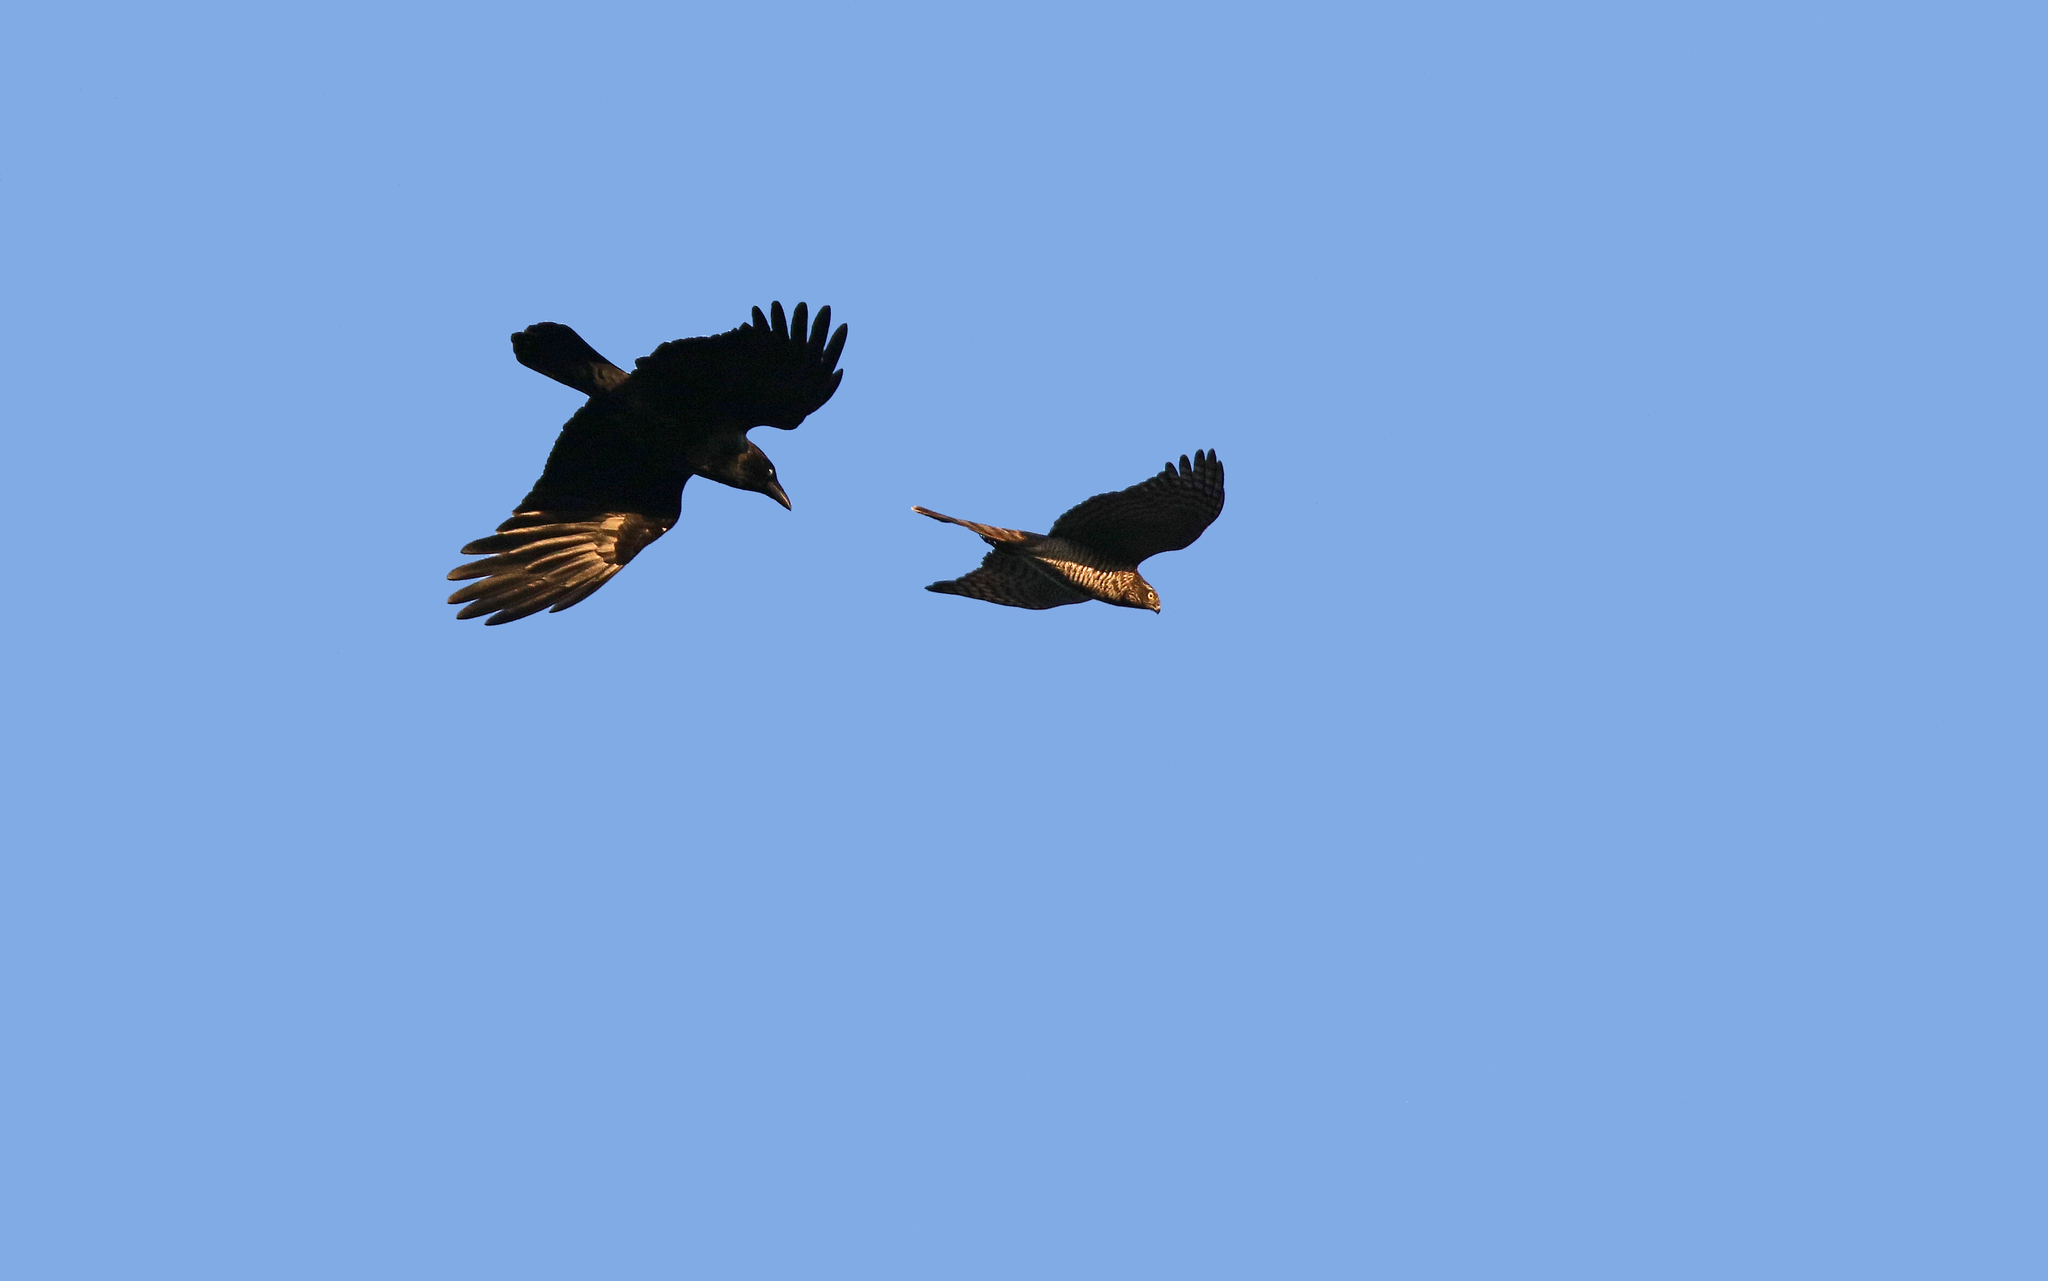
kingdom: Animalia
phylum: Chordata
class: Aves
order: Accipitriformes
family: Accipitridae
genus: Accipiter
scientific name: Accipiter nisus
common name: Eurasian sparrowhawk
